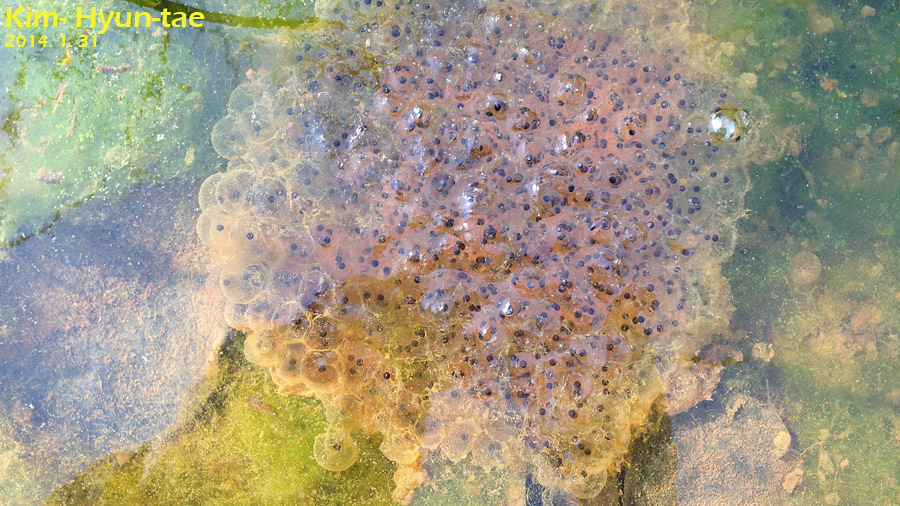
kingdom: Animalia
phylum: Chordata
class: Amphibia
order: Anura
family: Ranidae
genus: Rana
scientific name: Rana uenoi
